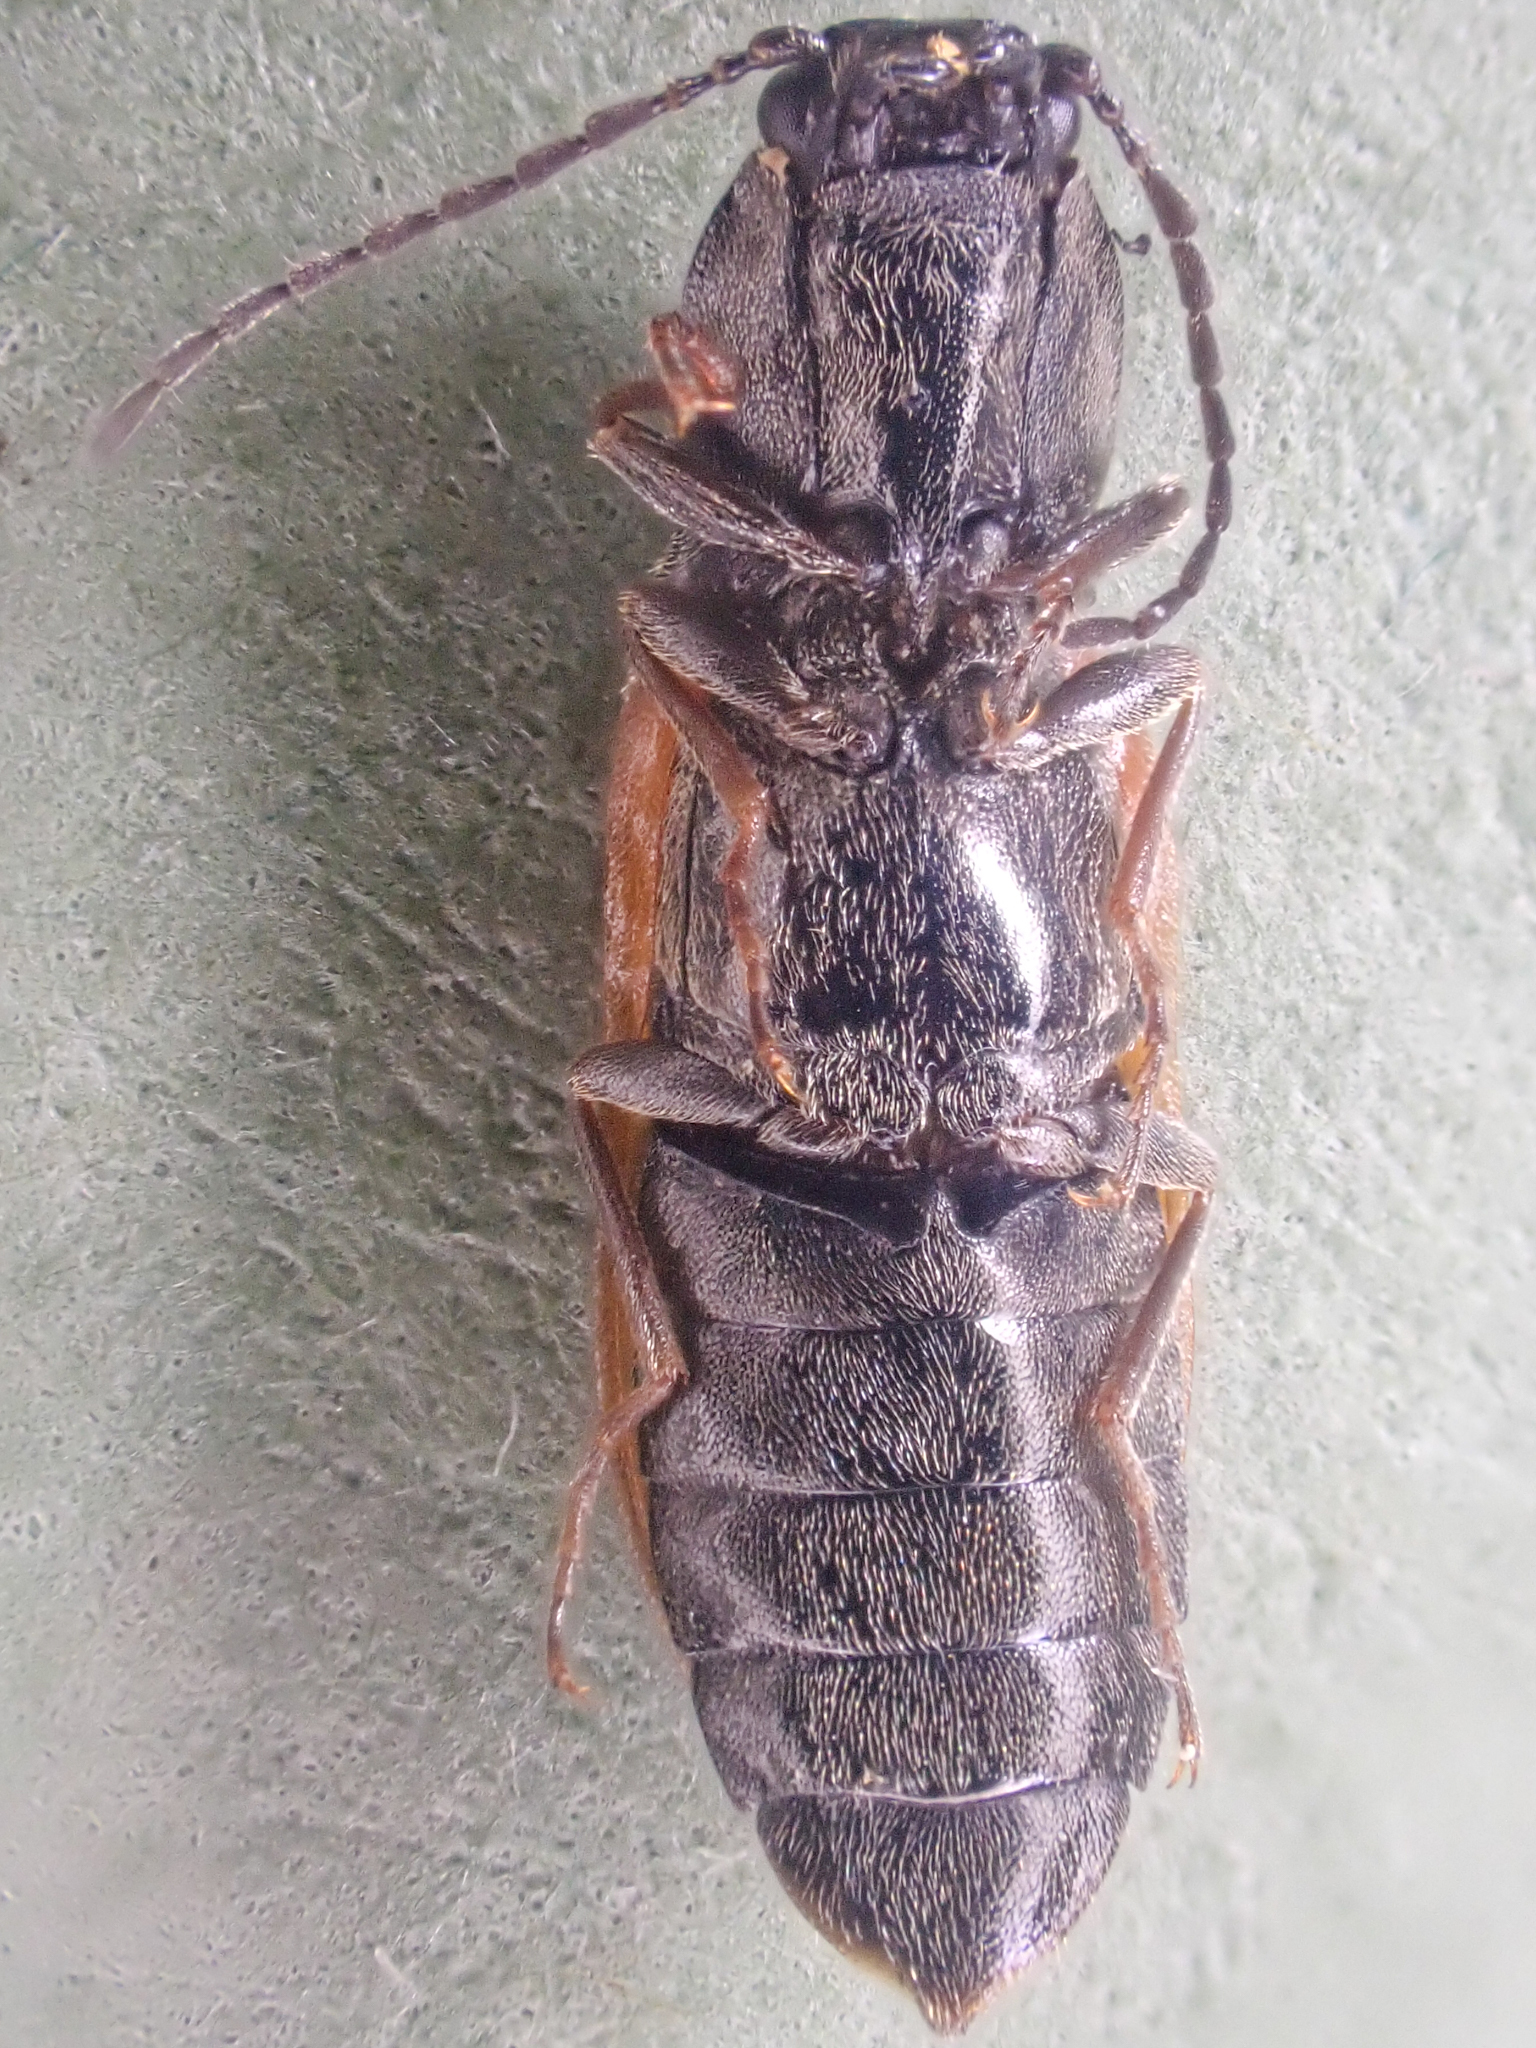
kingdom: Animalia
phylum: Arthropoda
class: Insecta
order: Coleoptera
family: Elateridae
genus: Pseudanostirus
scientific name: Pseudanostirus triundulatus
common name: Three-spotted click beetle
